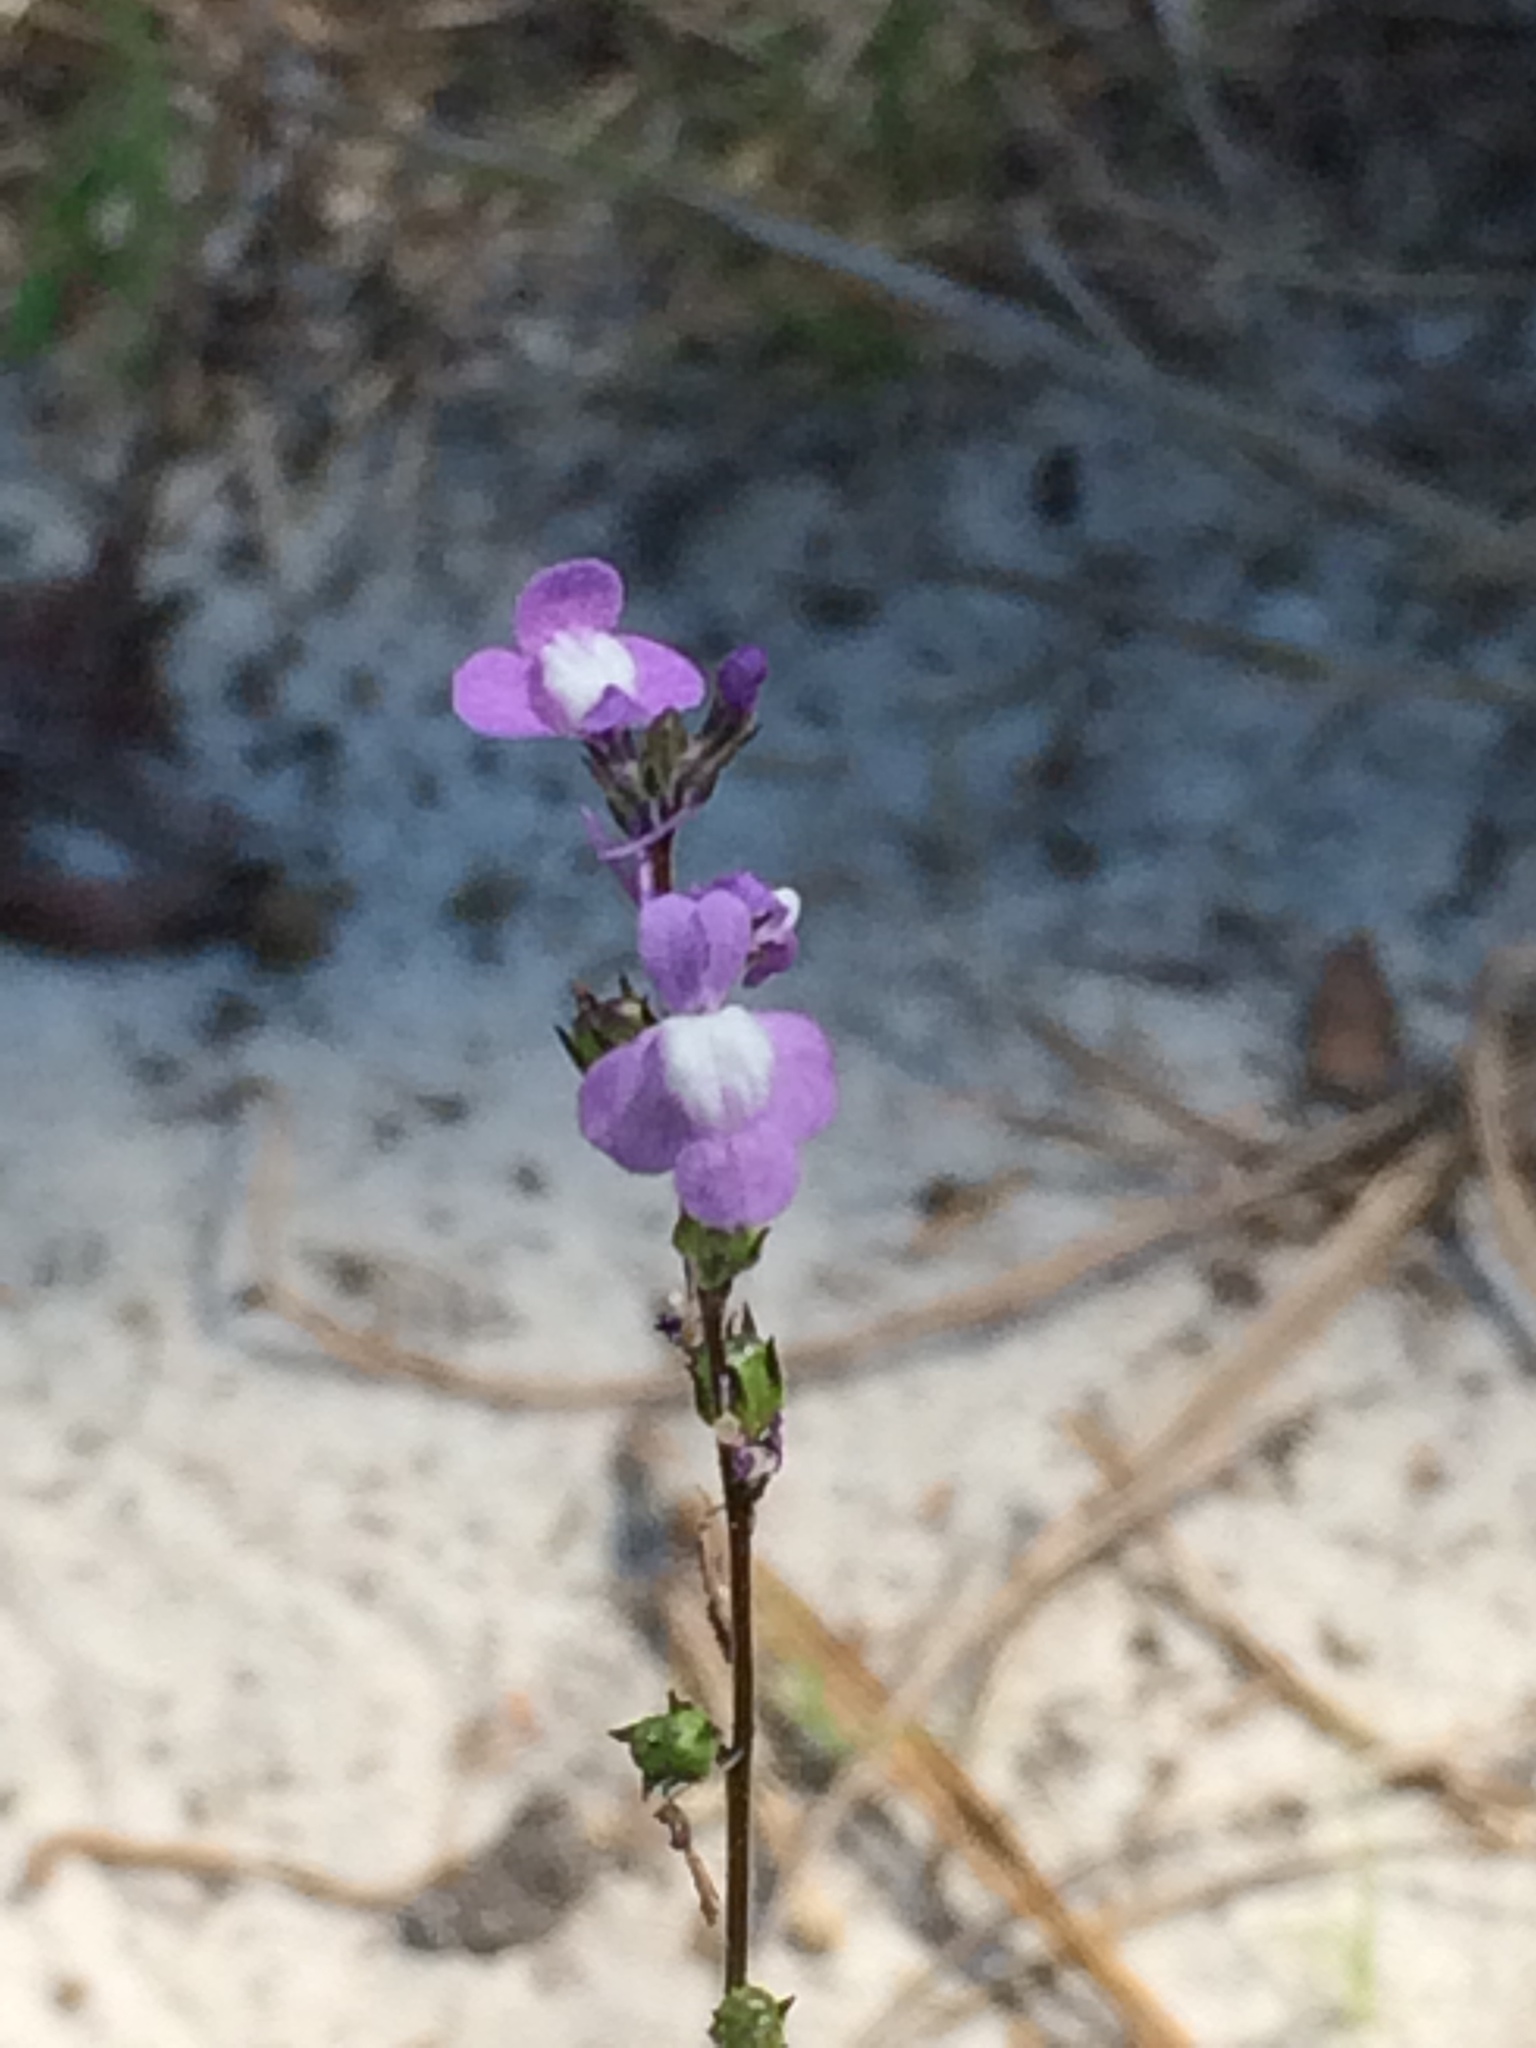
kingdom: Plantae
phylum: Tracheophyta
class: Magnoliopsida
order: Lamiales
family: Plantaginaceae
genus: Nuttallanthus
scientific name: Nuttallanthus canadensis
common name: Blue toadflax
